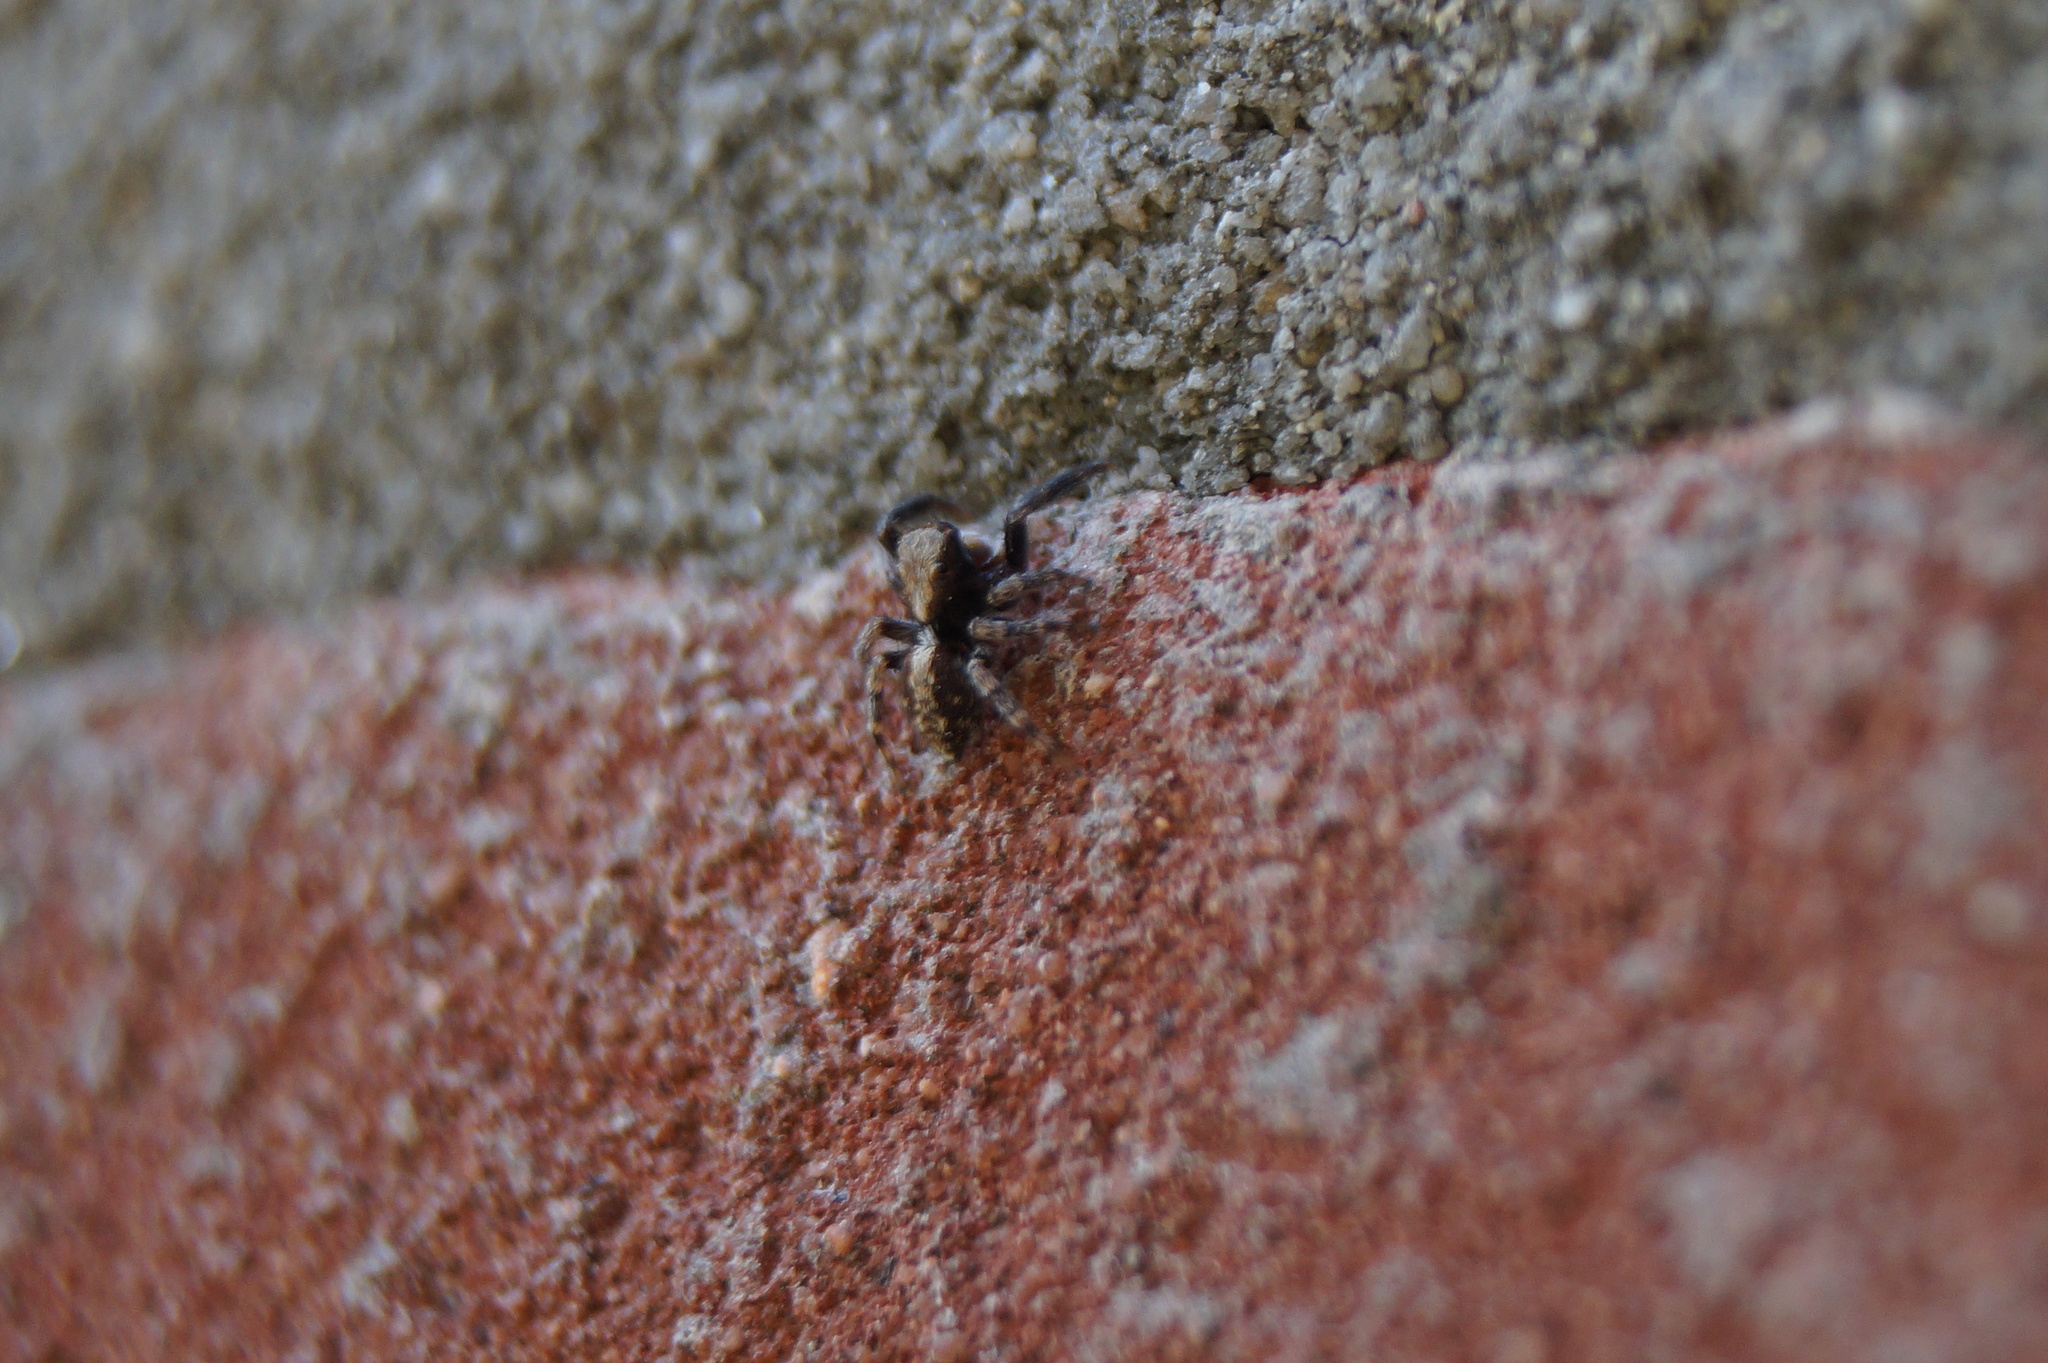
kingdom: Animalia
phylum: Arthropoda
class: Arachnida
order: Araneae
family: Salticidae
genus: Pseudeuophrys
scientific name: Pseudeuophrys lanigera
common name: Jumping spider
